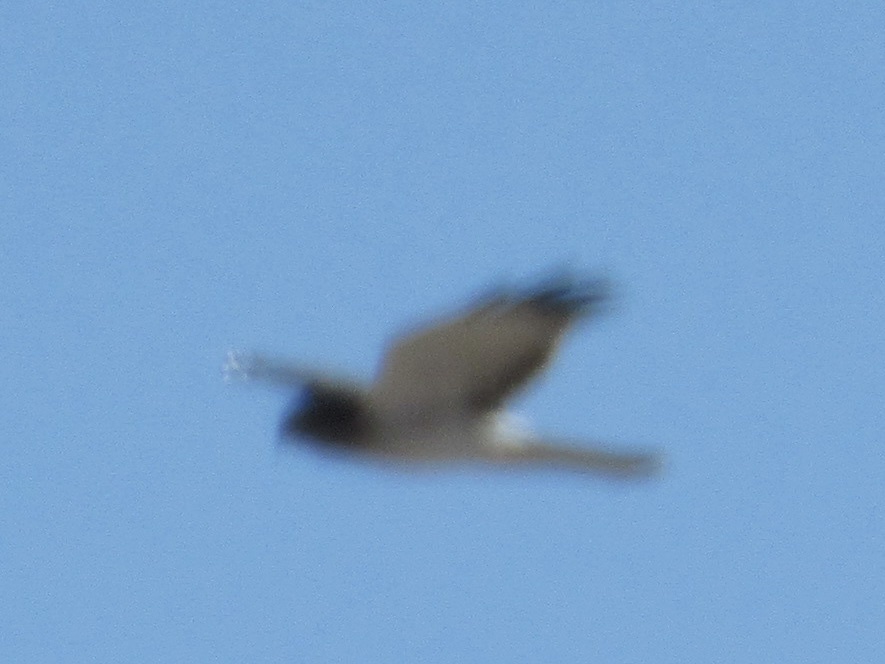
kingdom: Animalia
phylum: Chordata
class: Aves
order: Accipitriformes
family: Accipitridae
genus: Circus
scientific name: Circus cyaneus
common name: Hen harrier
